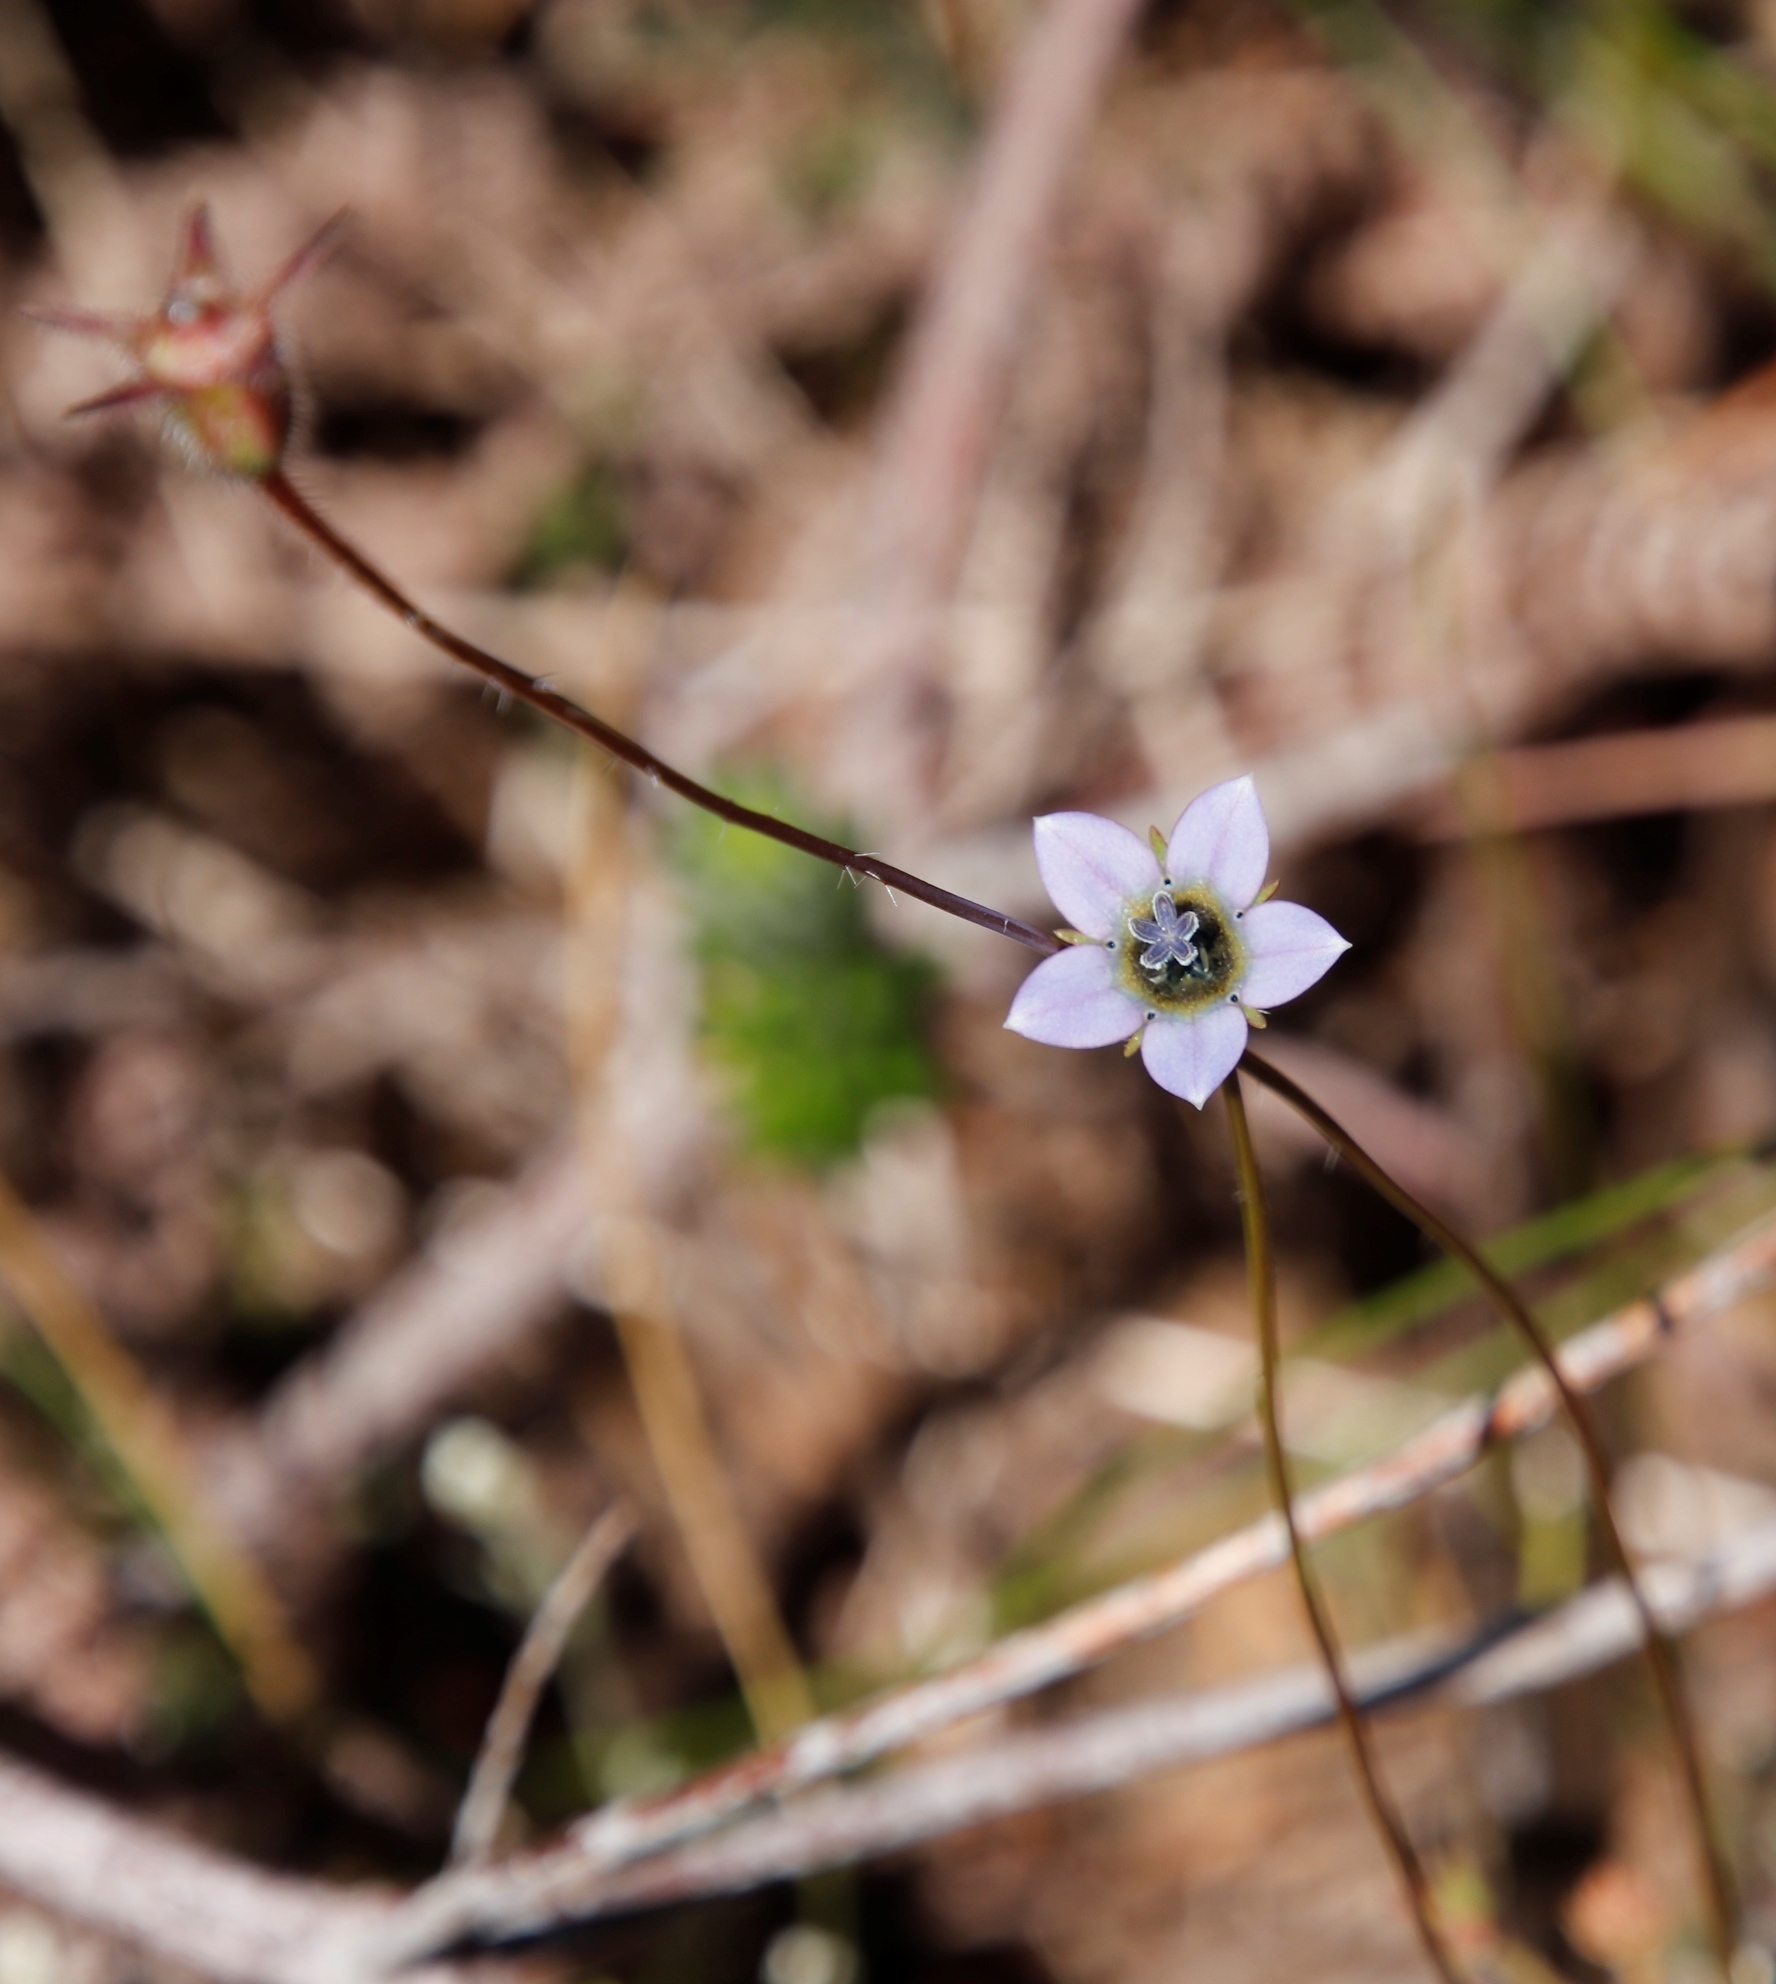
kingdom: Plantae
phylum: Tracheophyta
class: Magnoliopsida
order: Asterales
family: Campanulaceae
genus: Wahlenbergia
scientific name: Wahlenbergia capensis
